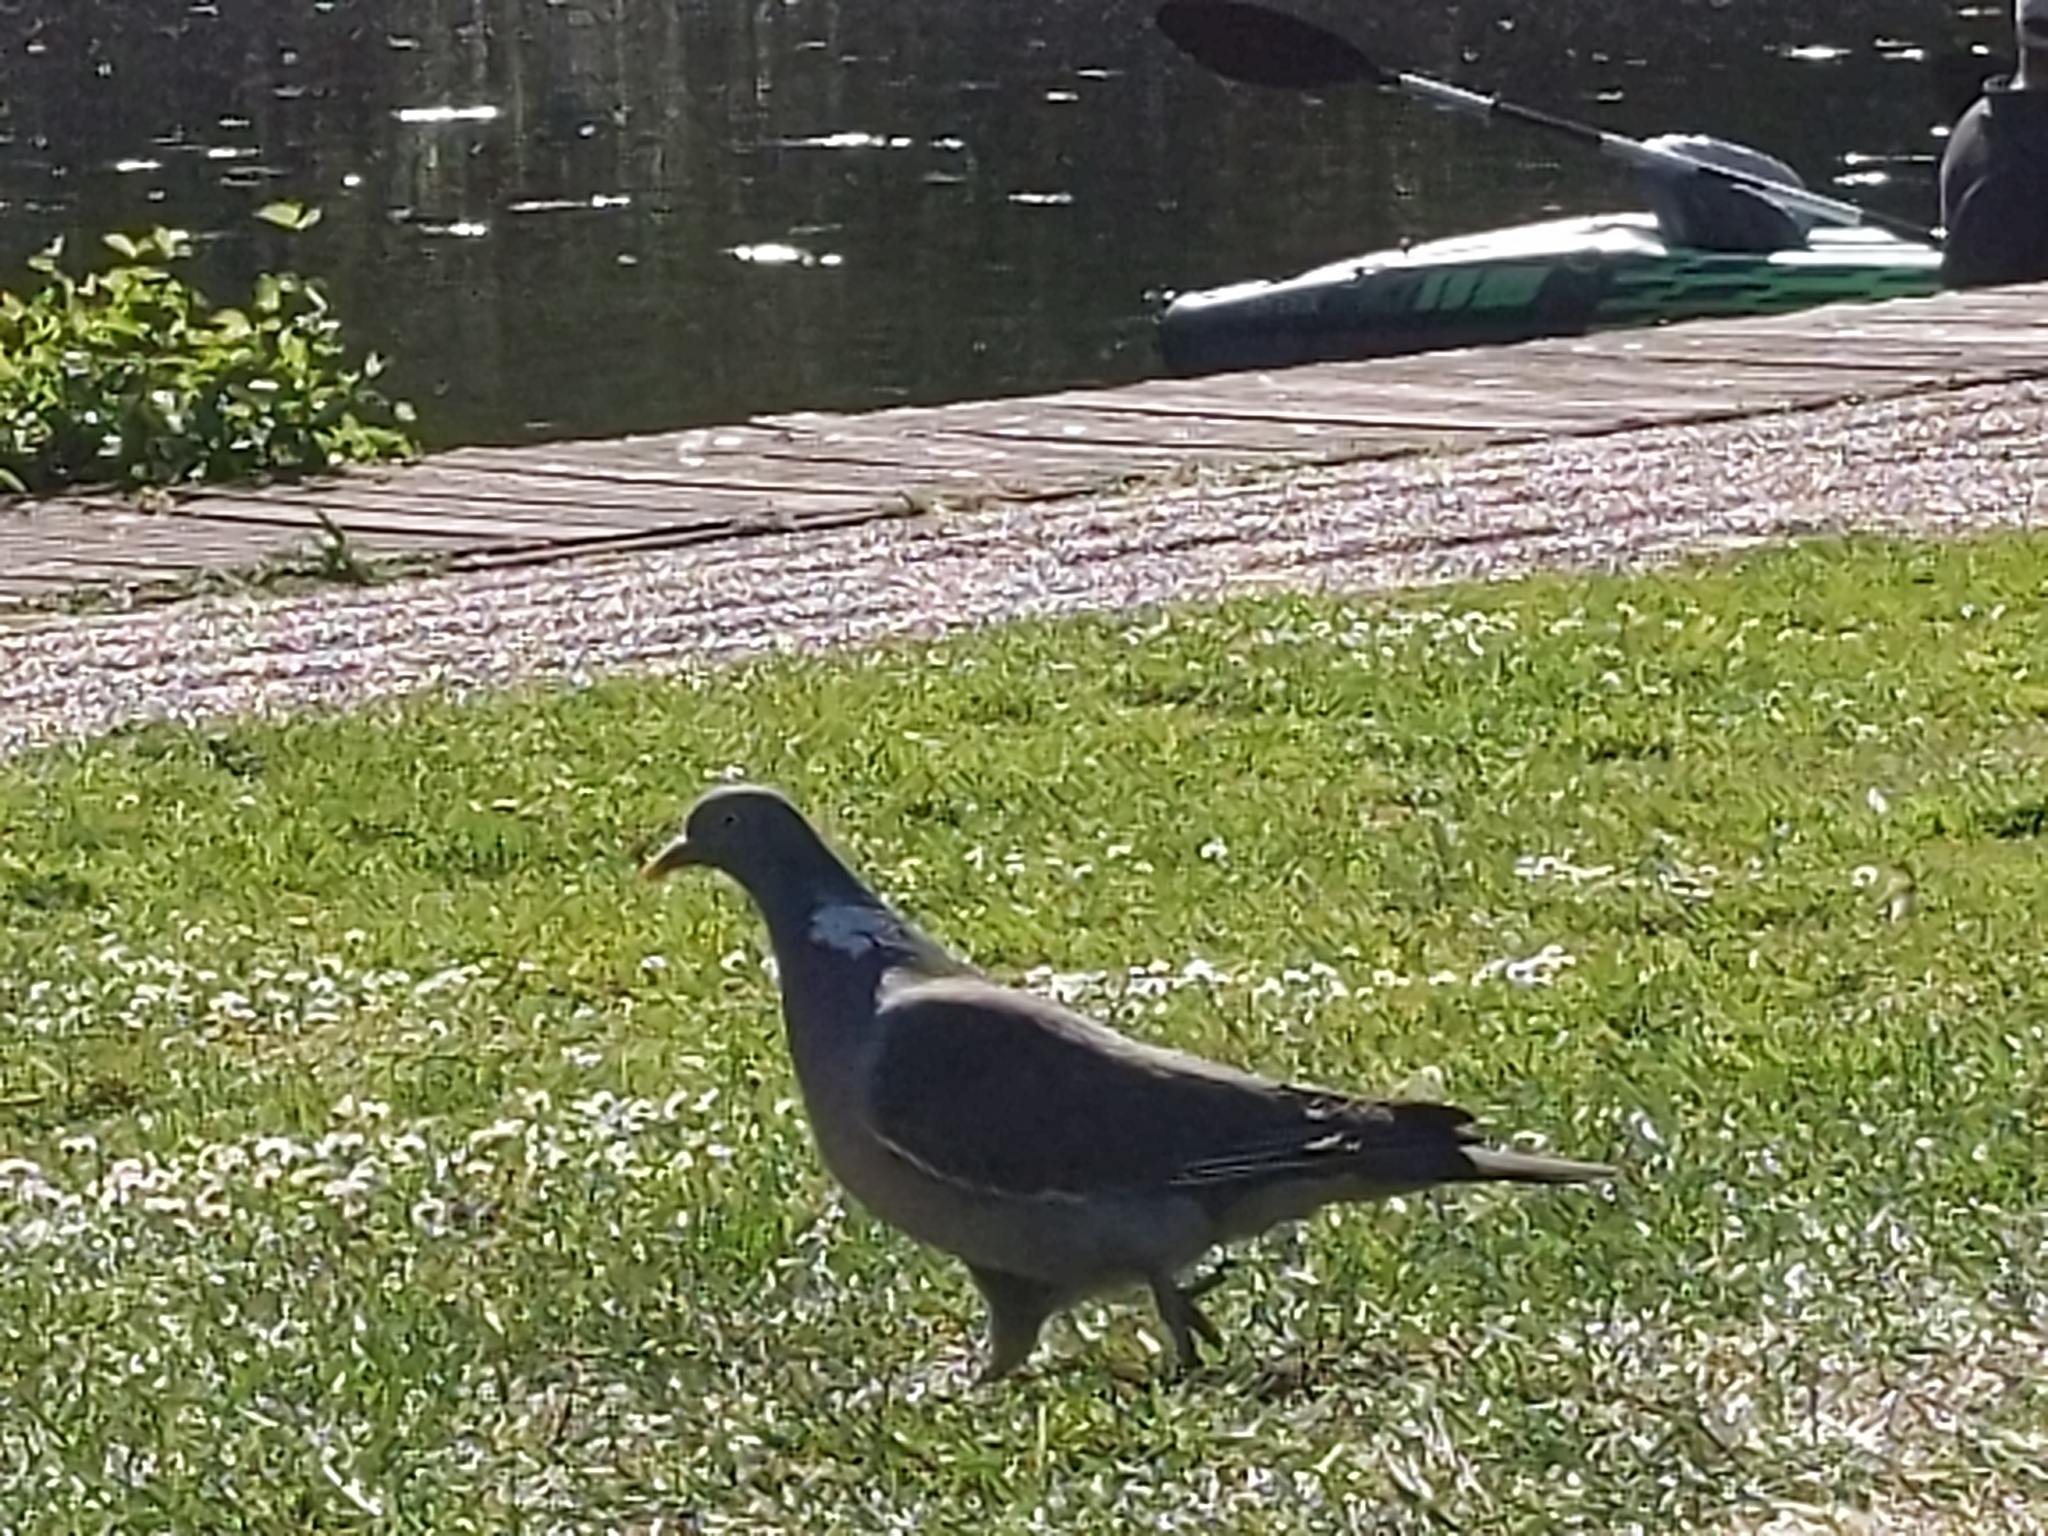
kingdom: Animalia
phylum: Chordata
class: Aves
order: Columbiformes
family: Columbidae
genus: Columba
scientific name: Columba palumbus
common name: Common wood pigeon
